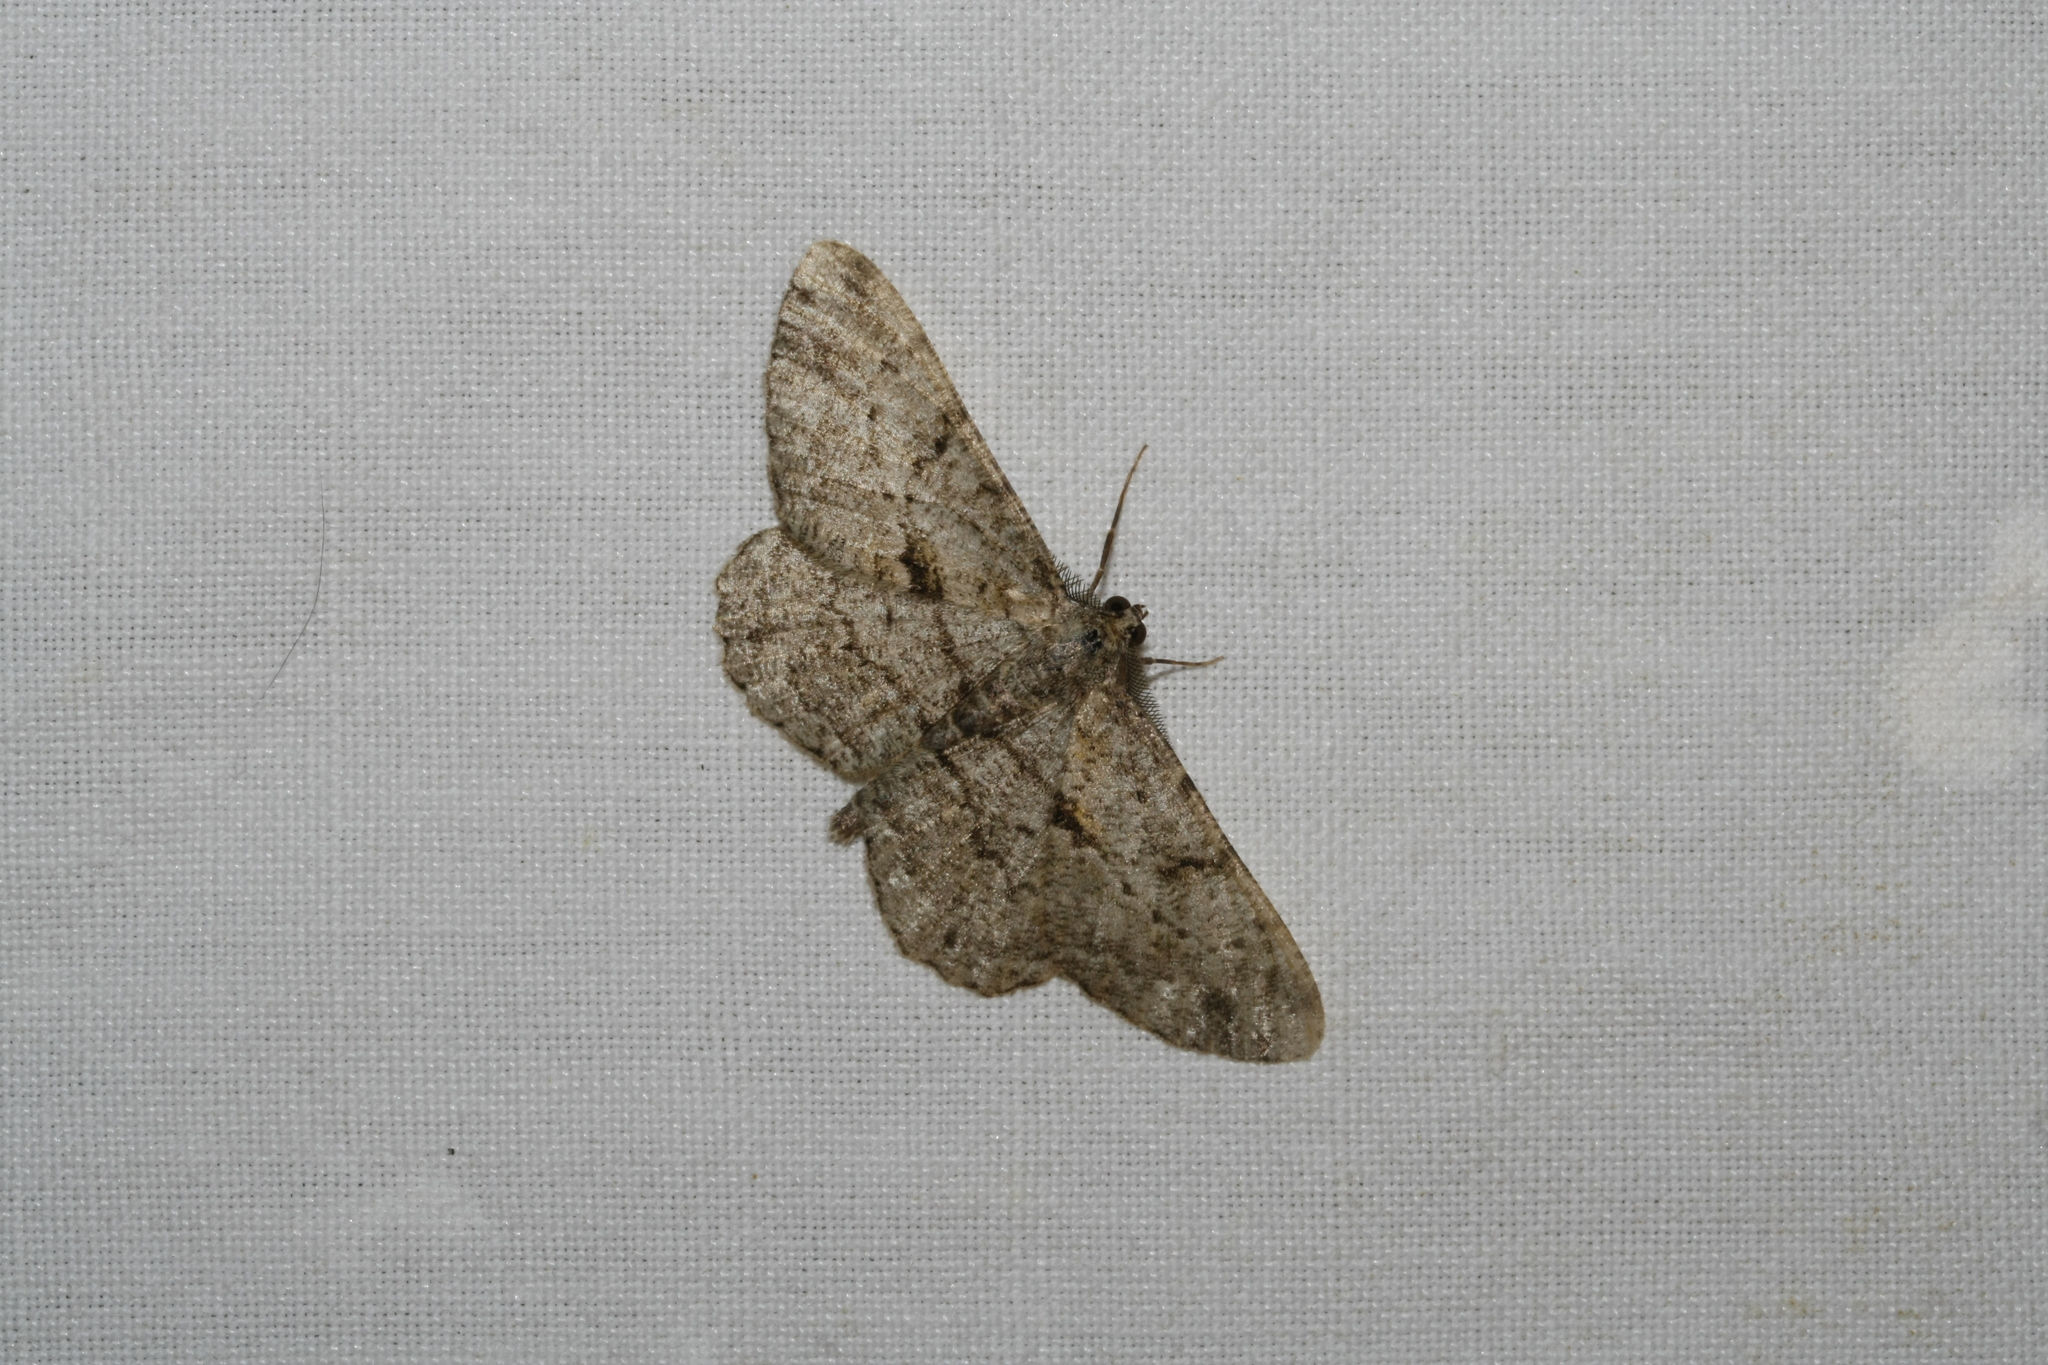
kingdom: Animalia
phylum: Arthropoda
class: Insecta
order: Lepidoptera
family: Geometridae
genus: Peribatodes
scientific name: Peribatodes rhomboidaria
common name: Willow beauty
